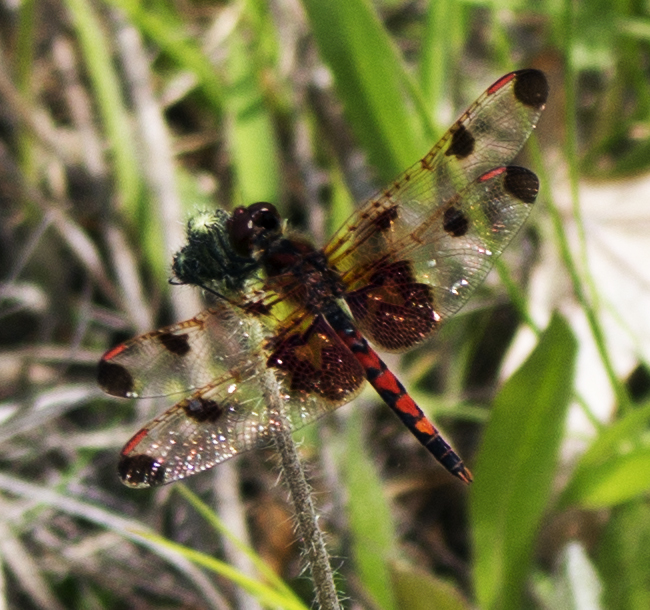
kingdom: Animalia
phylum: Arthropoda
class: Insecta
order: Odonata
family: Libellulidae
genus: Celithemis
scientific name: Celithemis elisa
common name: Calico pennant
